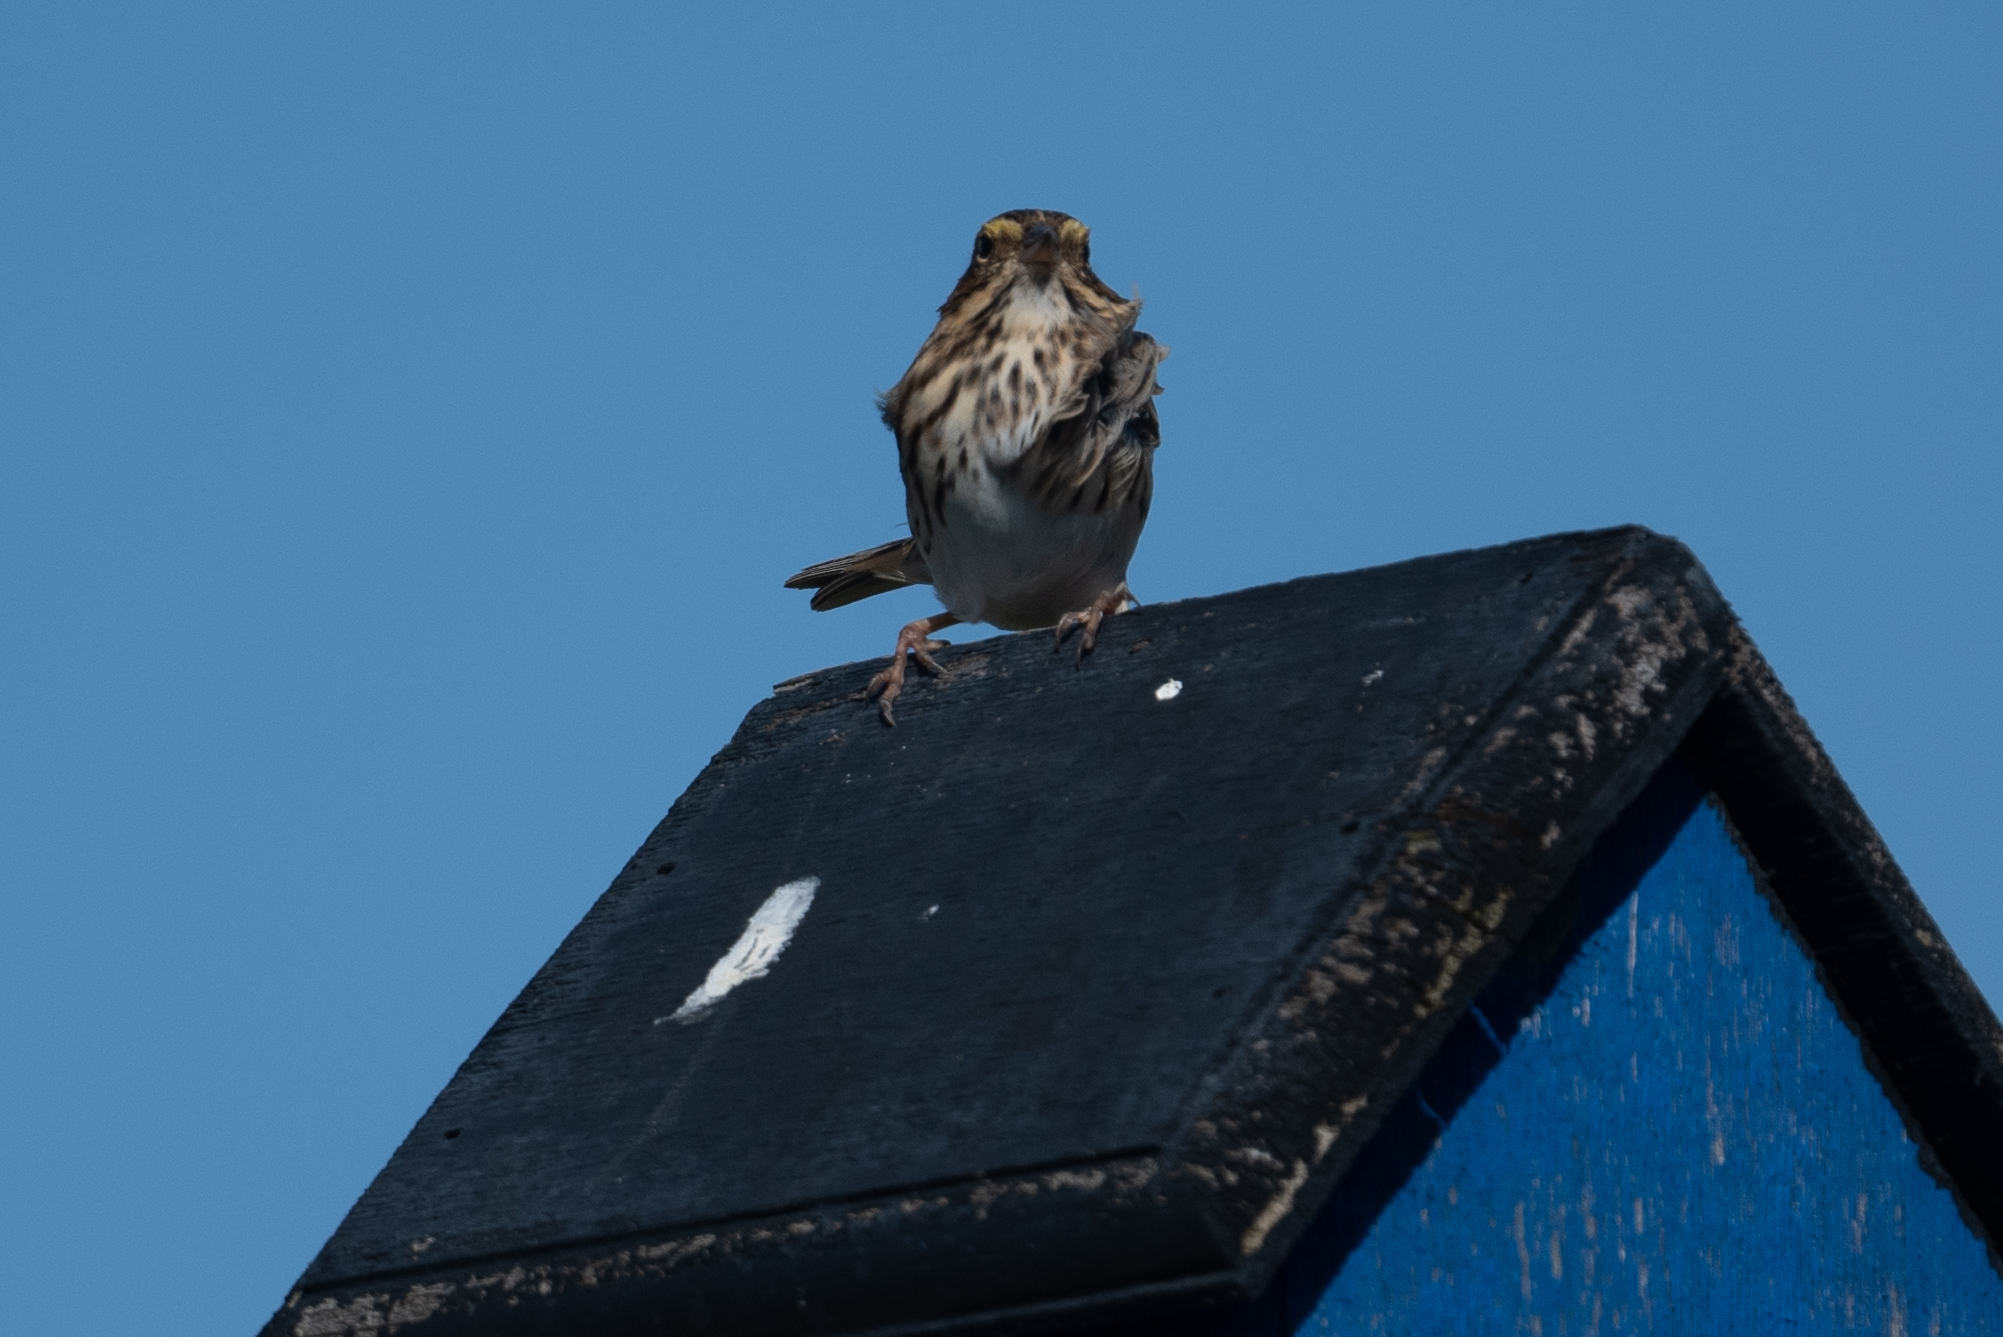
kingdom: Animalia
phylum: Chordata
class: Aves
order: Passeriformes
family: Passerellidae
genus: Passerculus
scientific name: Passerculus sandwichensis
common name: Savannah sparrow
